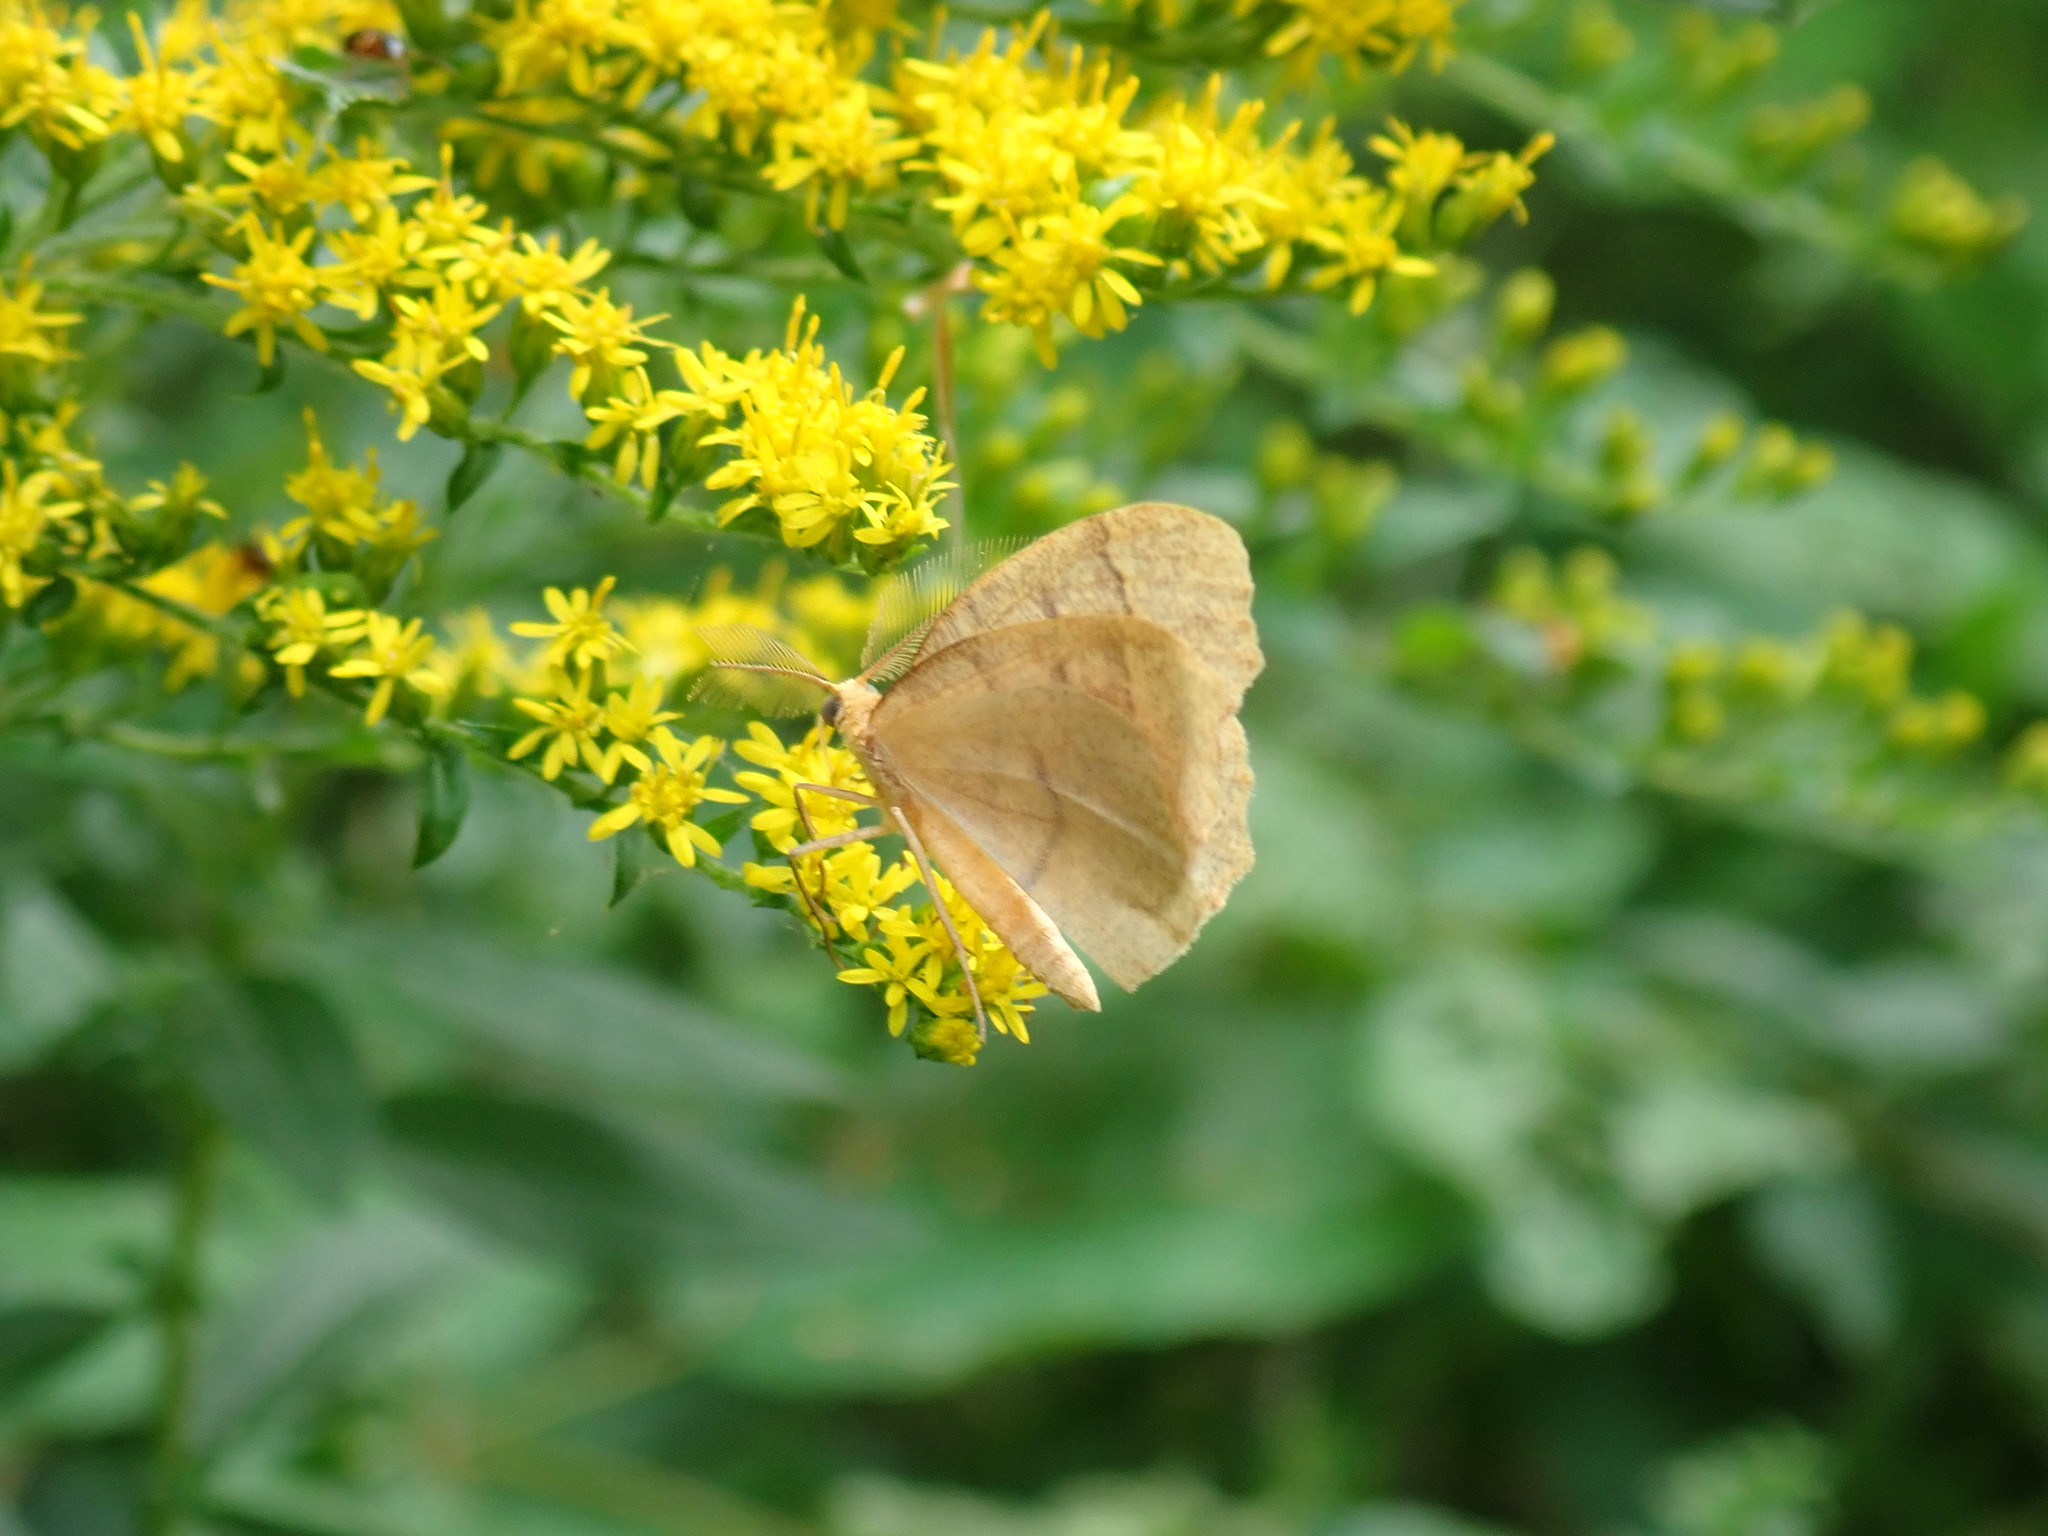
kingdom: Animalia
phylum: Arthropoda
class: Insecta
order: Lepidoptera
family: Geometridae
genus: Lambdina
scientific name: Lambdina fiscellaria
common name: Hemlock looper
